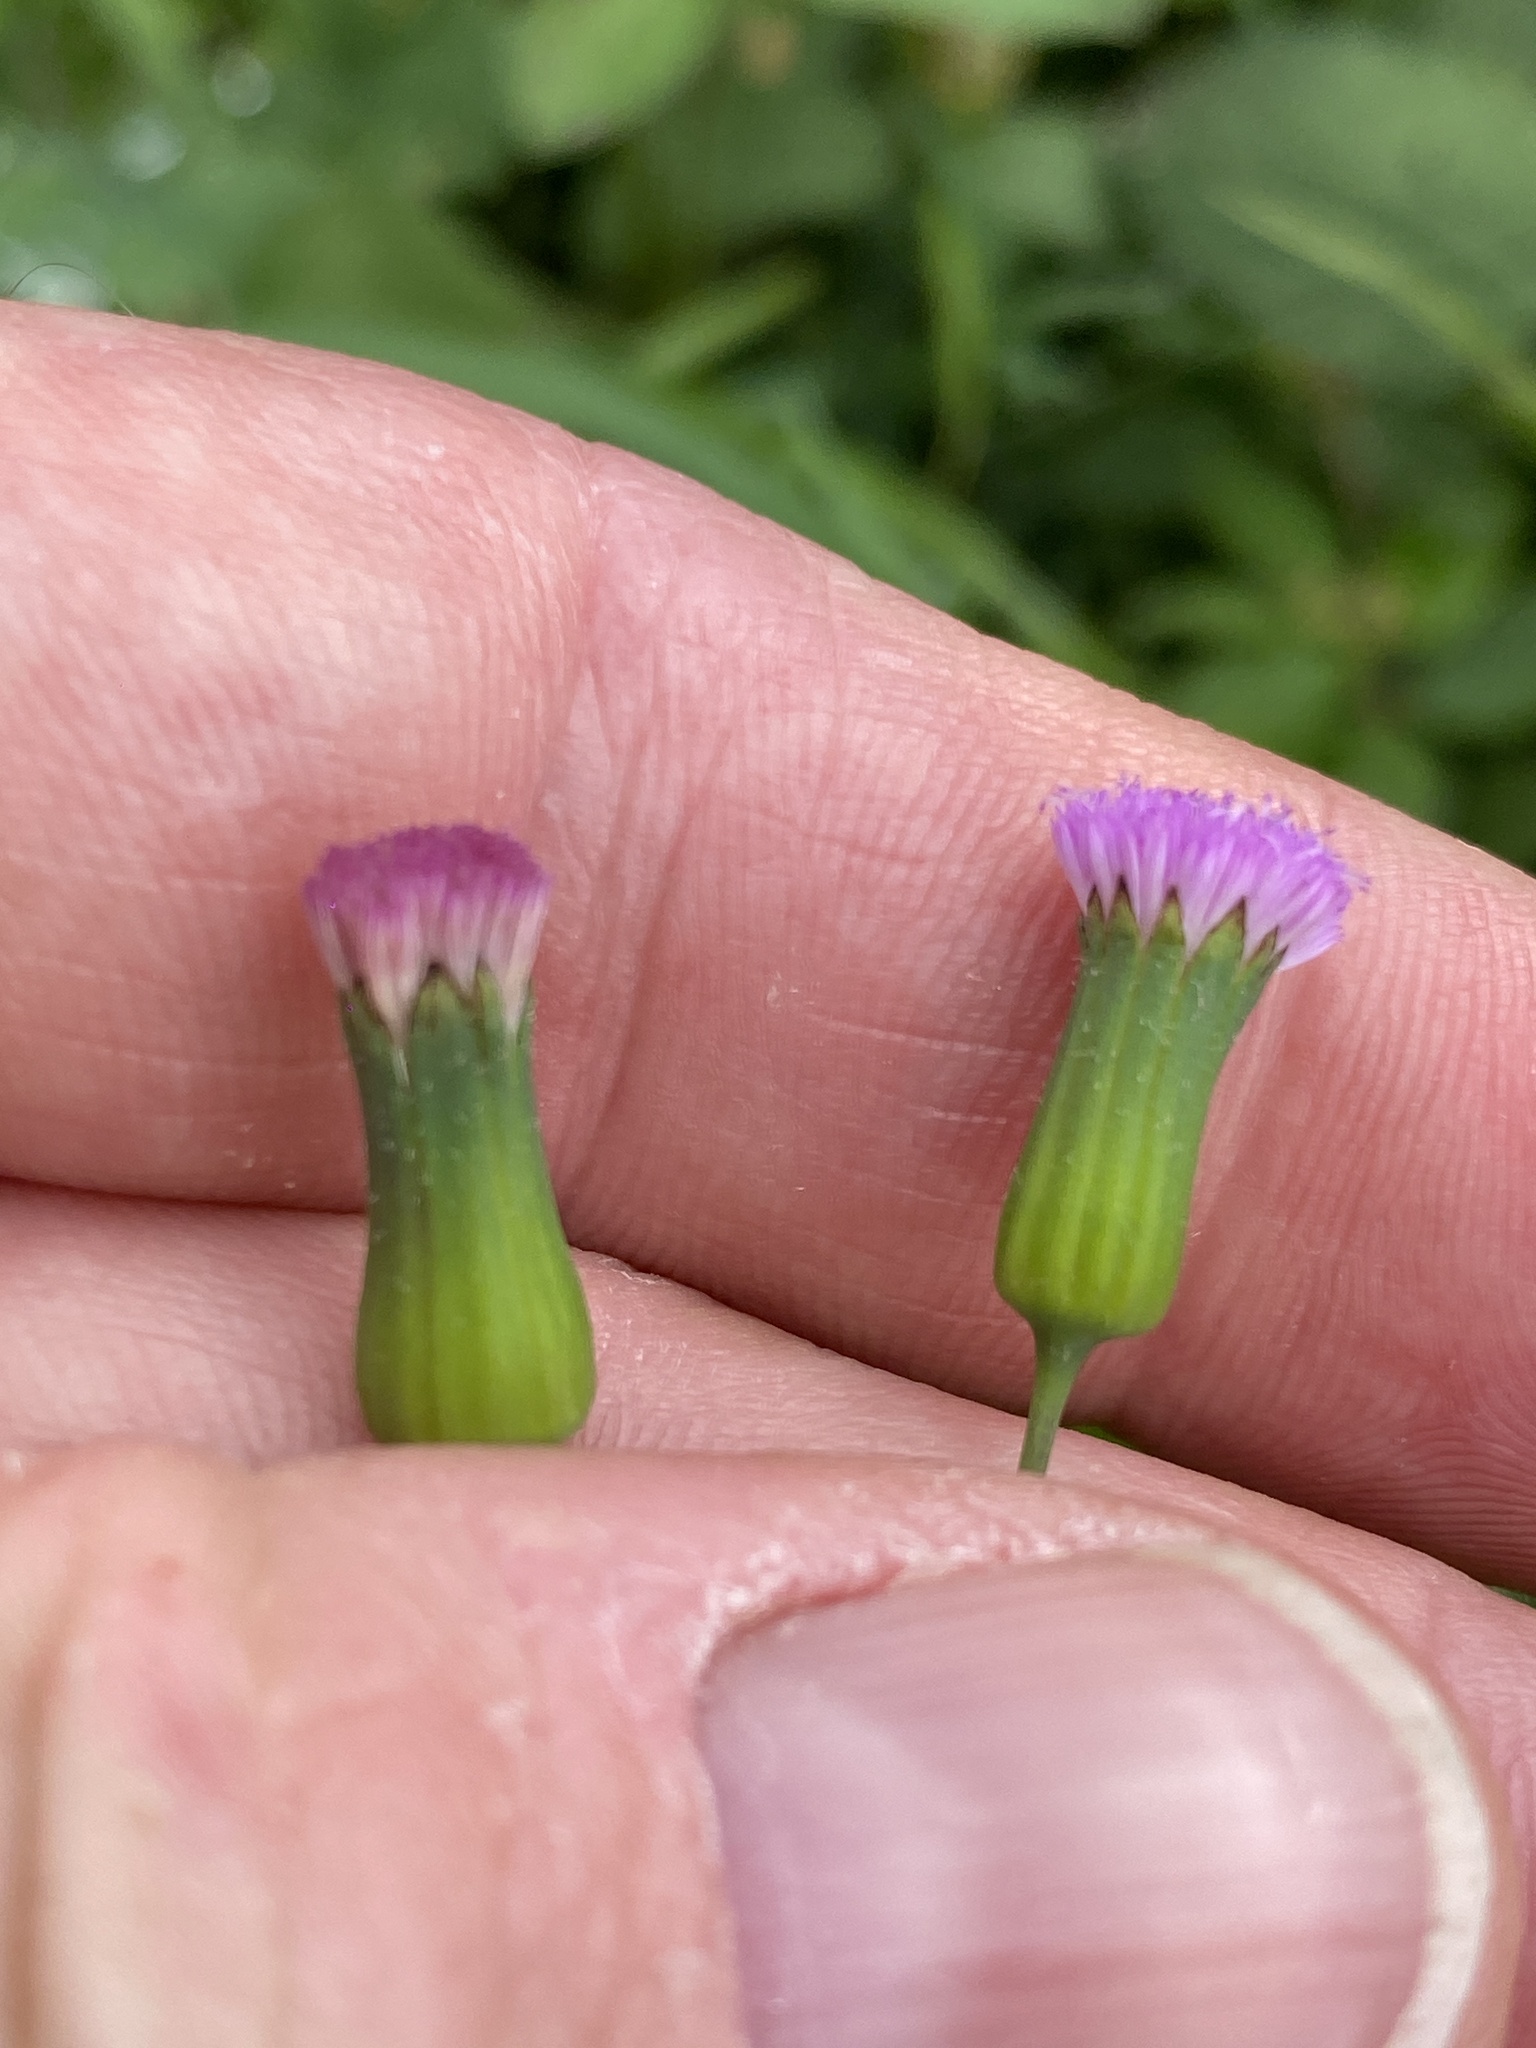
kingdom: Plantae
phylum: Tracheophyta
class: Magnoliopsida
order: Asterales
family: Asteraceae
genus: Emilia
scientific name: Emilia javanica
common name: Tassel-flower
